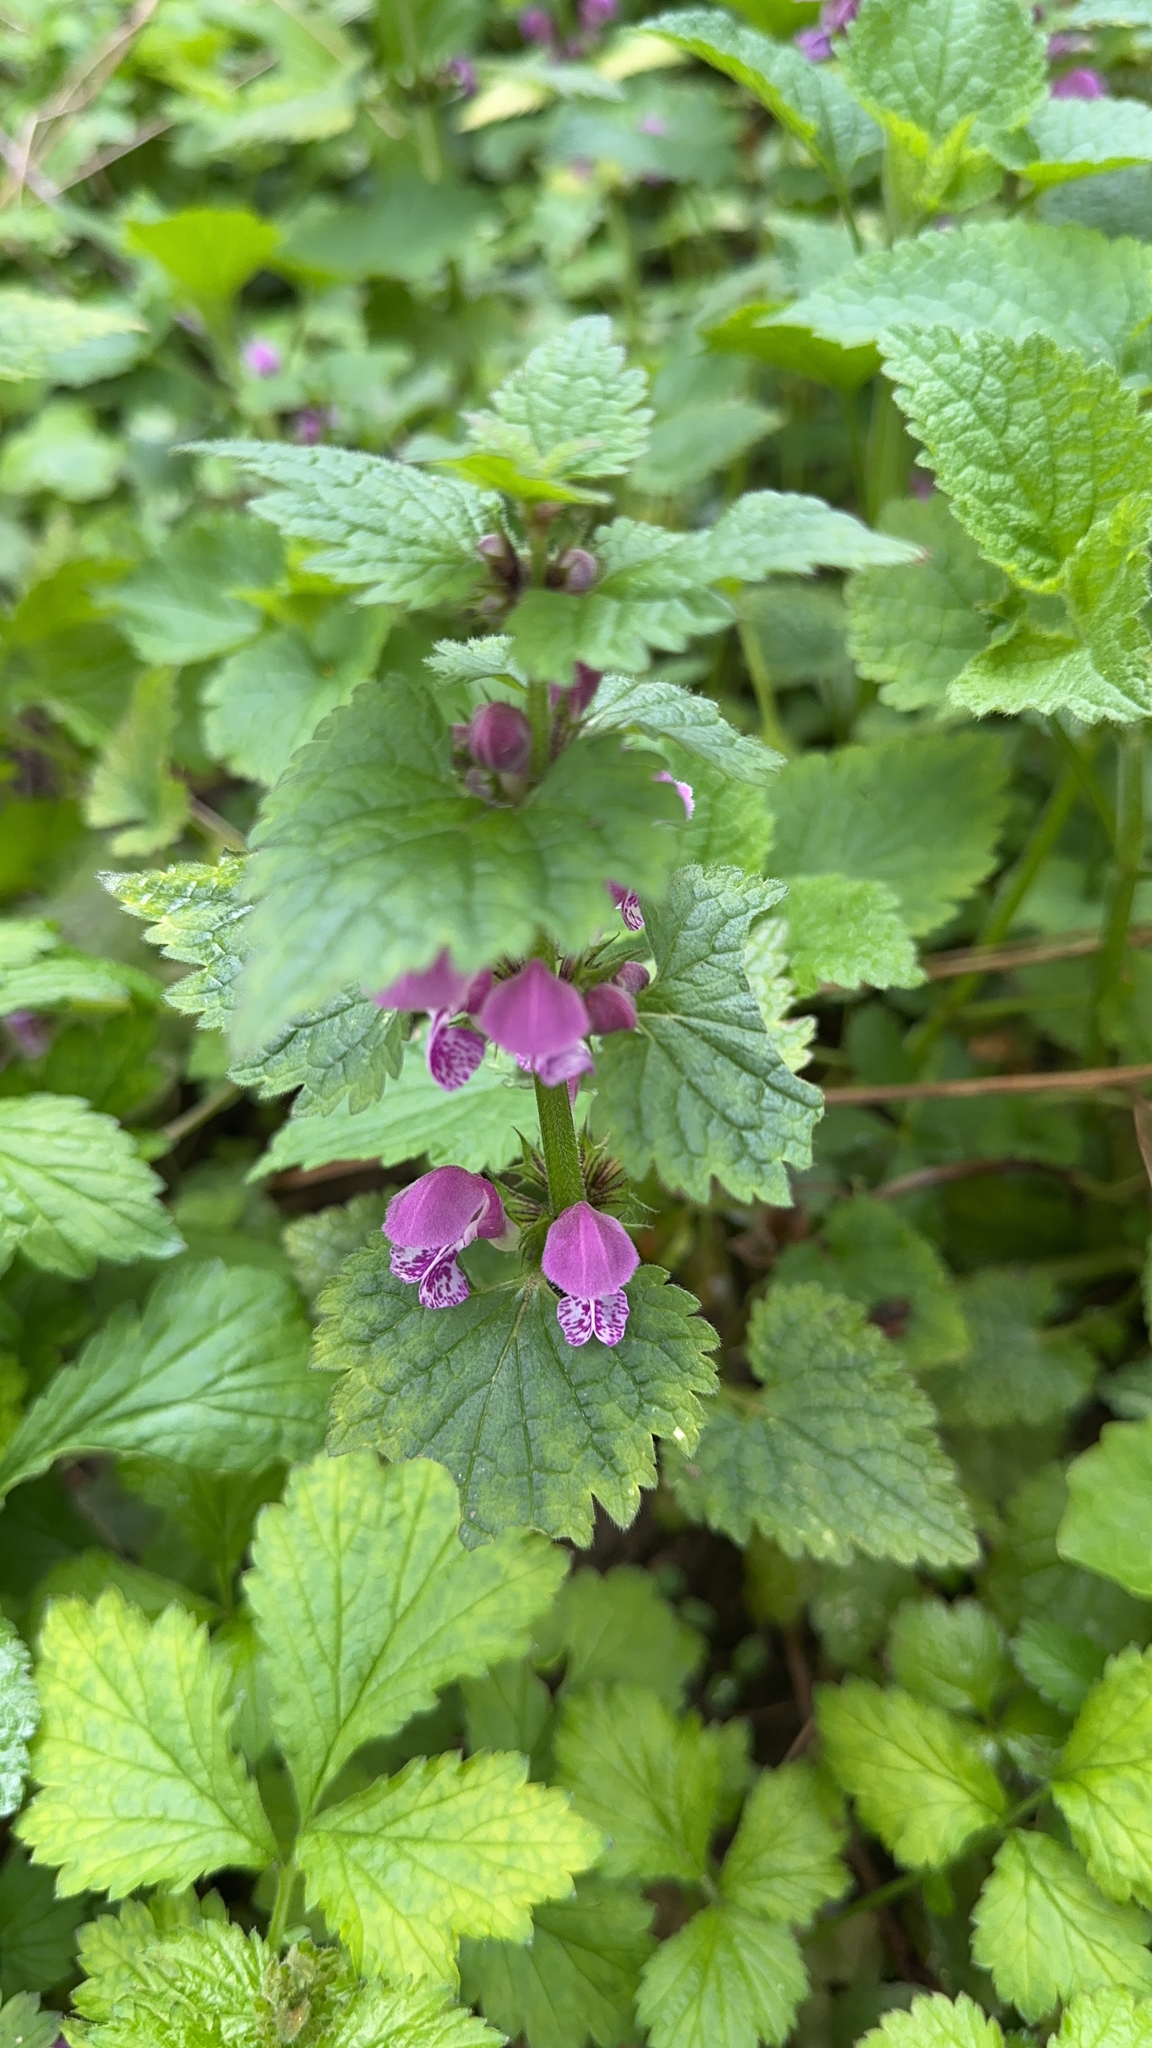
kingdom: Plantae
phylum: Tracheophyta
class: Magnoliopsida
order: Lamiales
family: Lamiaceae
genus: Lamium
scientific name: Lamium maculatum
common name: Spotted dead-nettle
